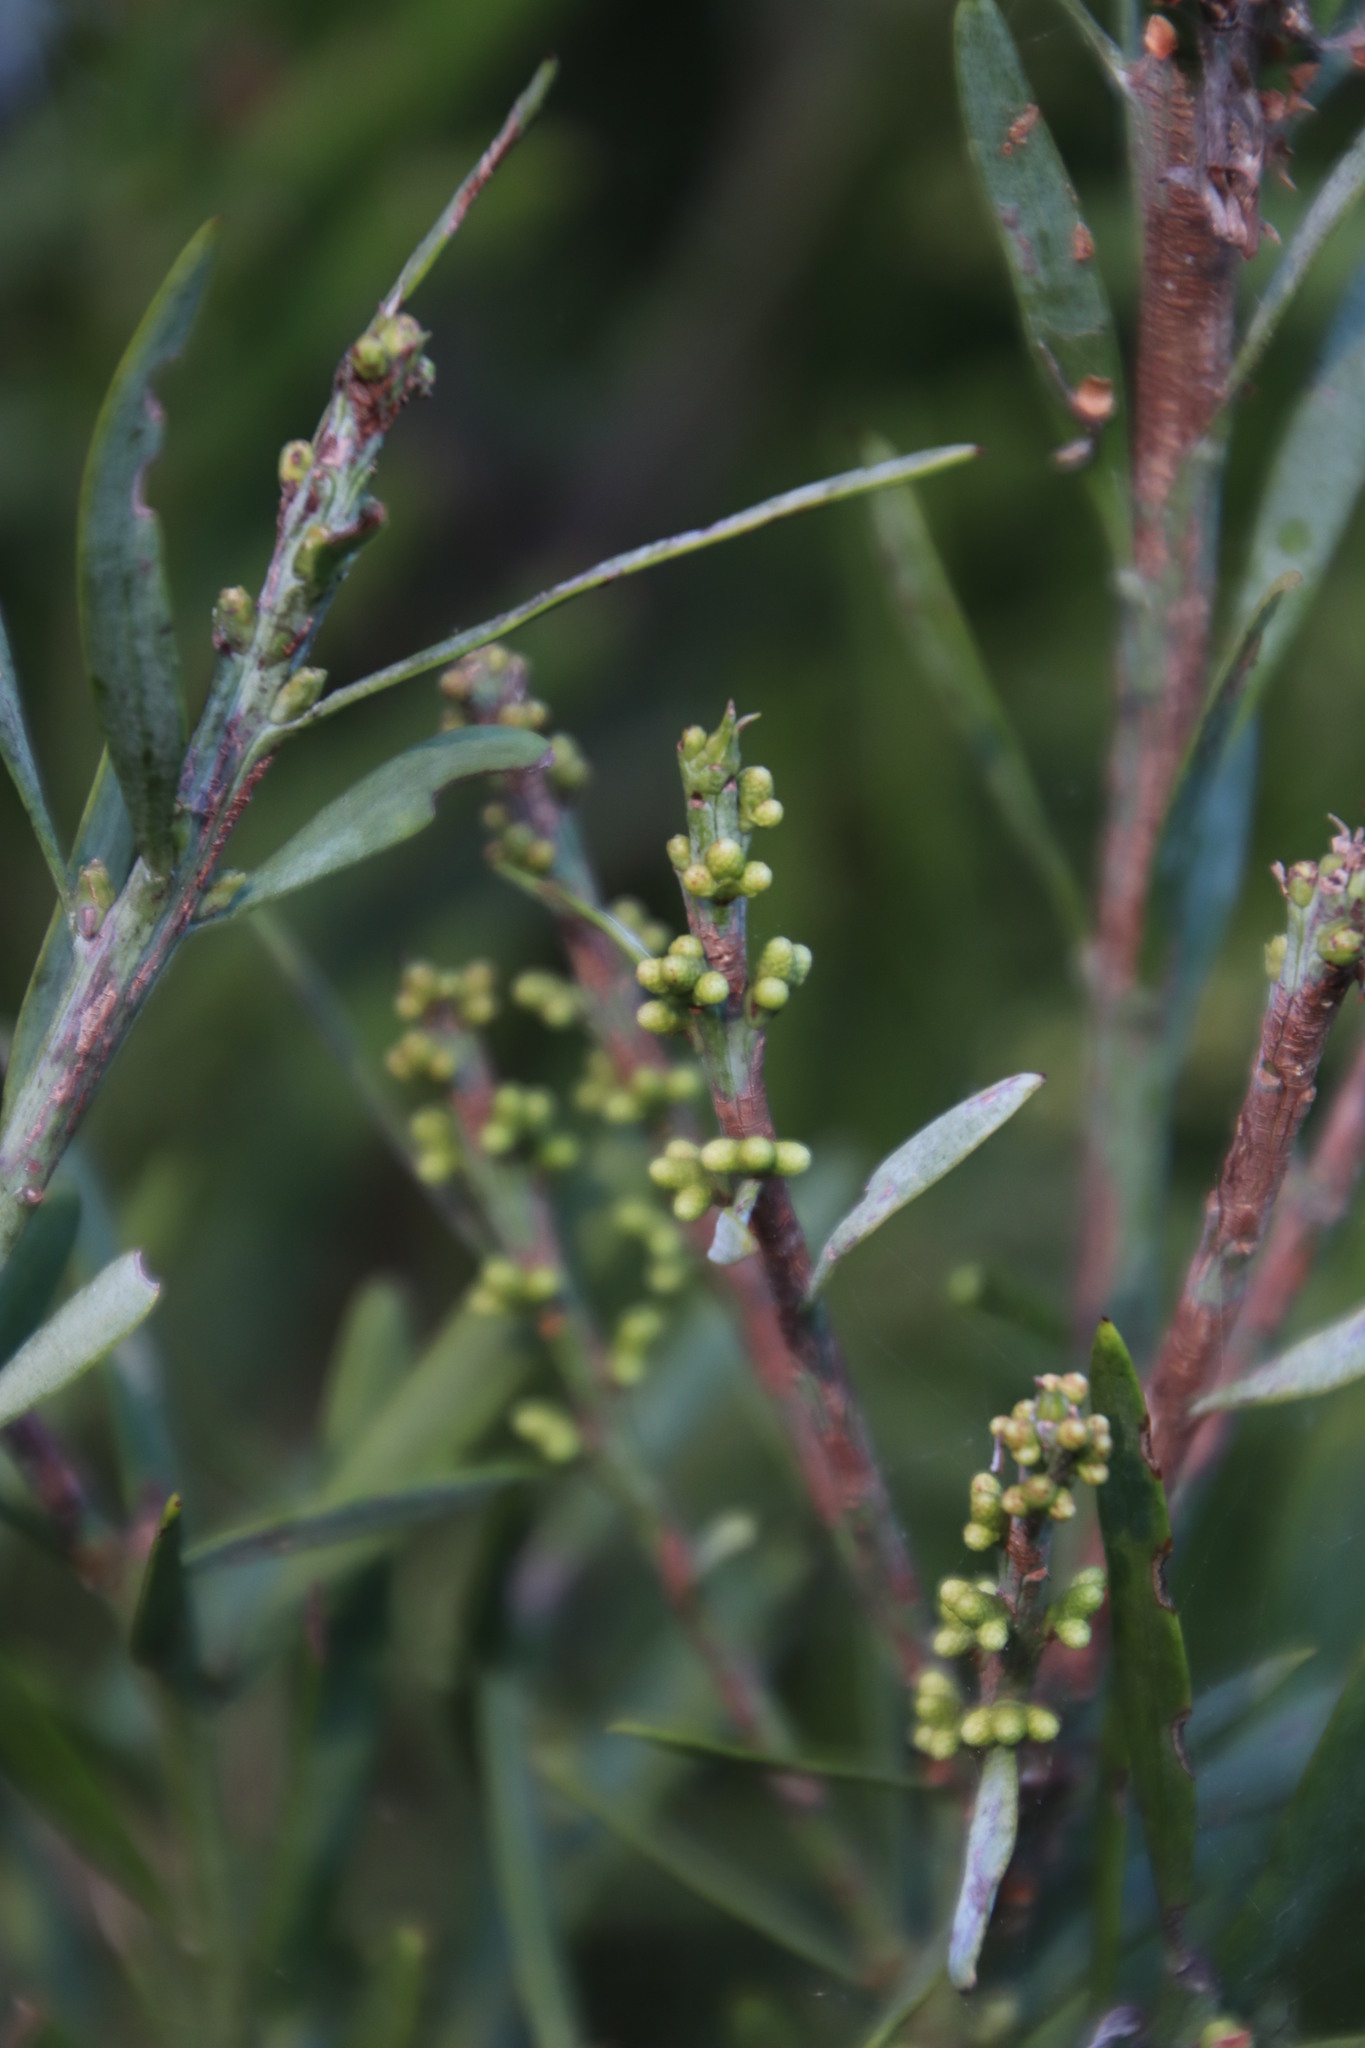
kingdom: Plantae
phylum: Tracheophyta
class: Pinopsida
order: Pinales
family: Podocarpaceae
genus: Afrocarpus
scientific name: Afrocarpus falcatus
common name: Bastard yellowwood
